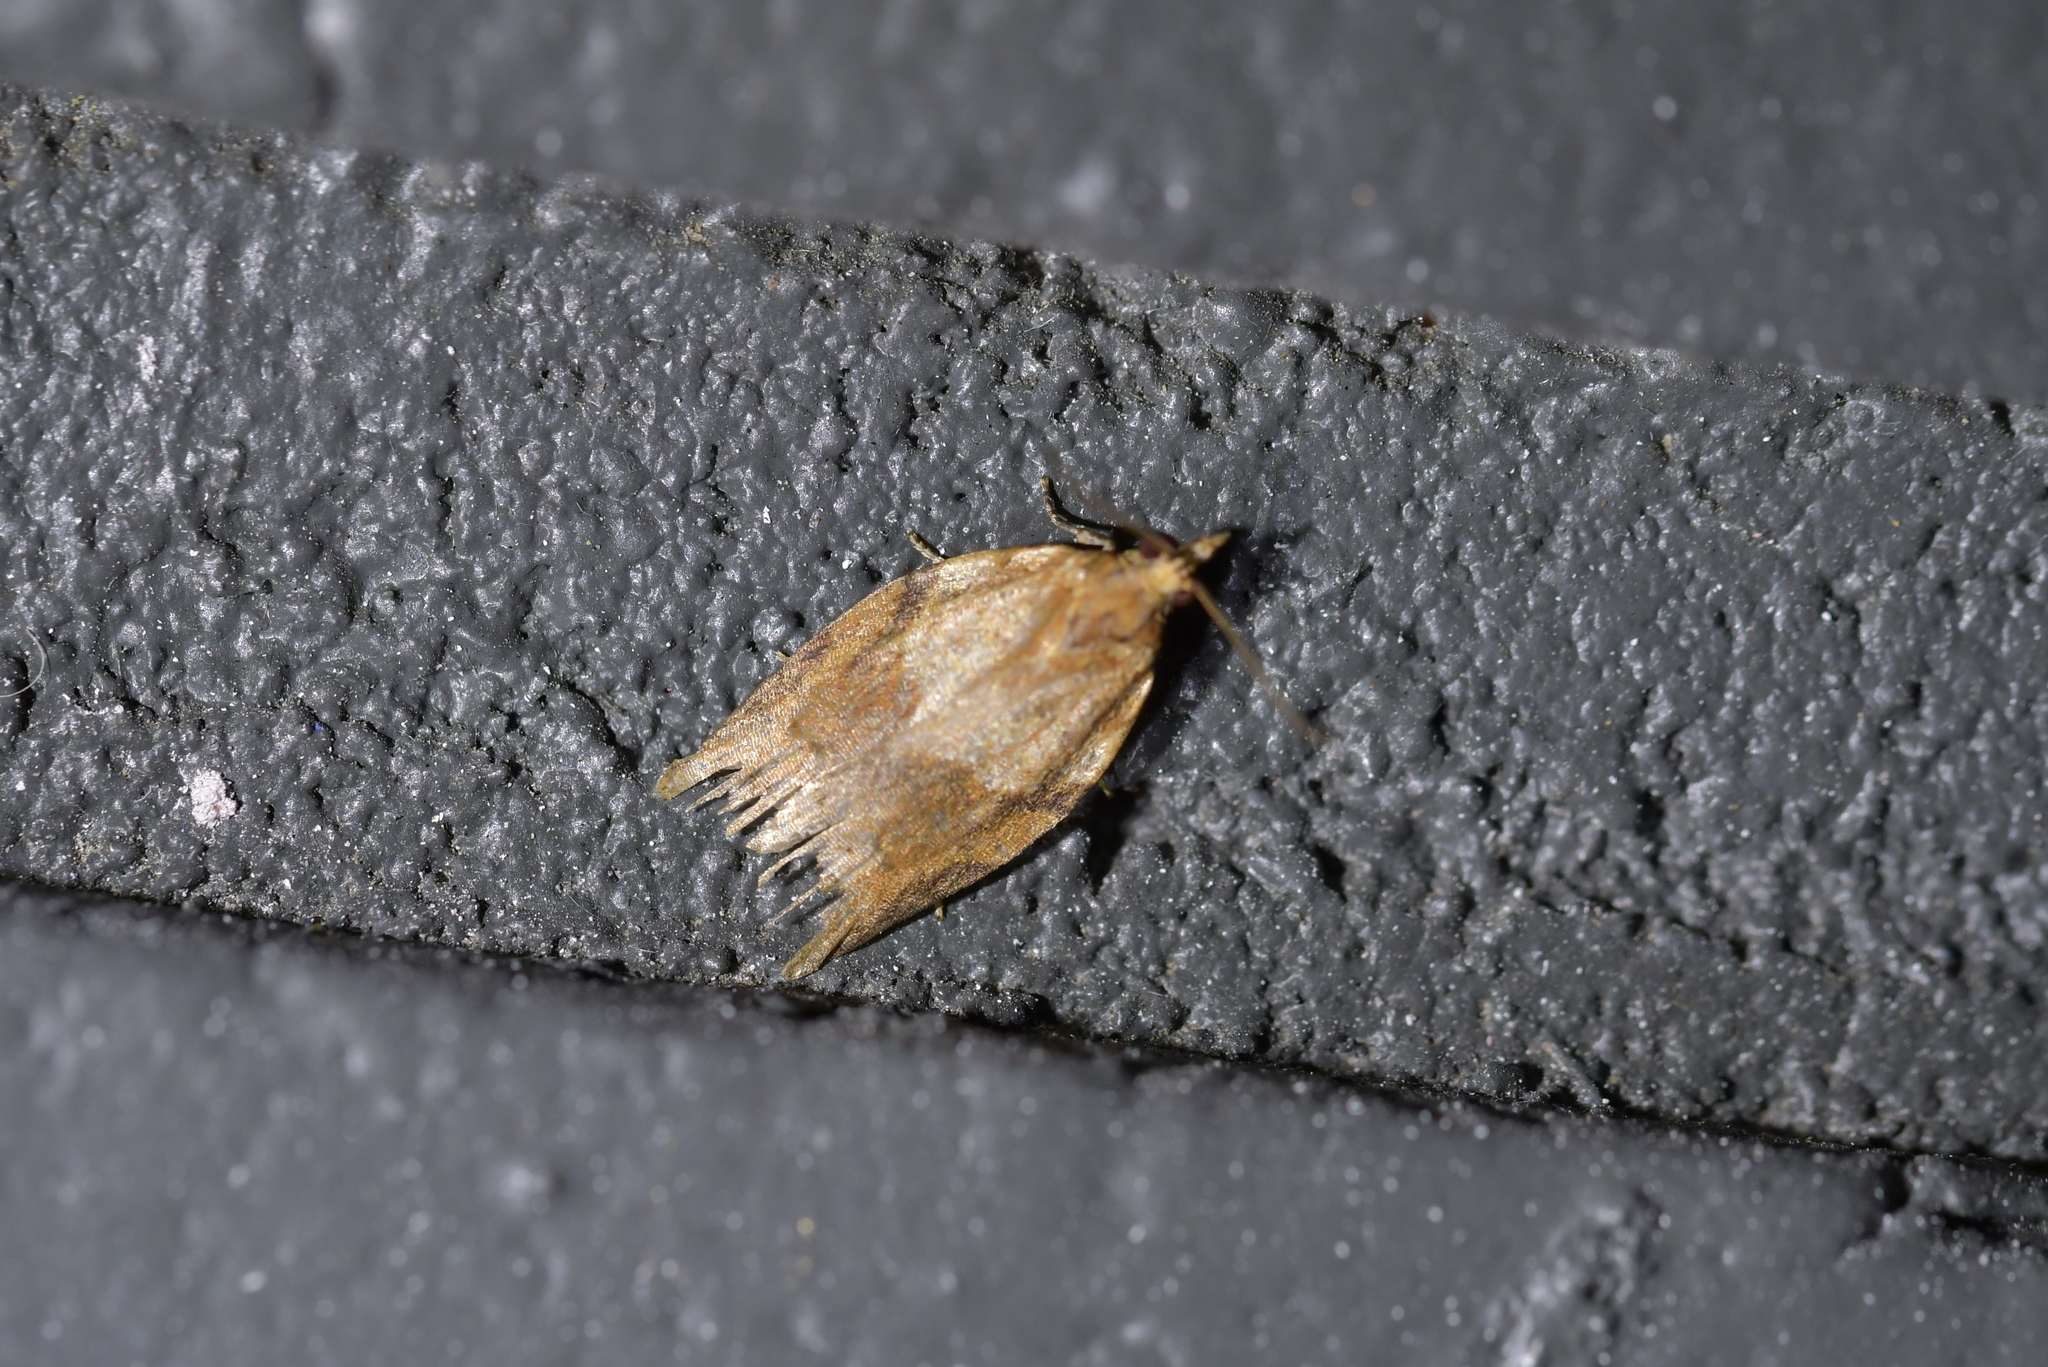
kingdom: Animalia
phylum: Arthropoda
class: Insecta
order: Lepidoptera
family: Tortricidae
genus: Epiphyas
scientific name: Epiphyas postvittana
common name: Light brown apple moth
